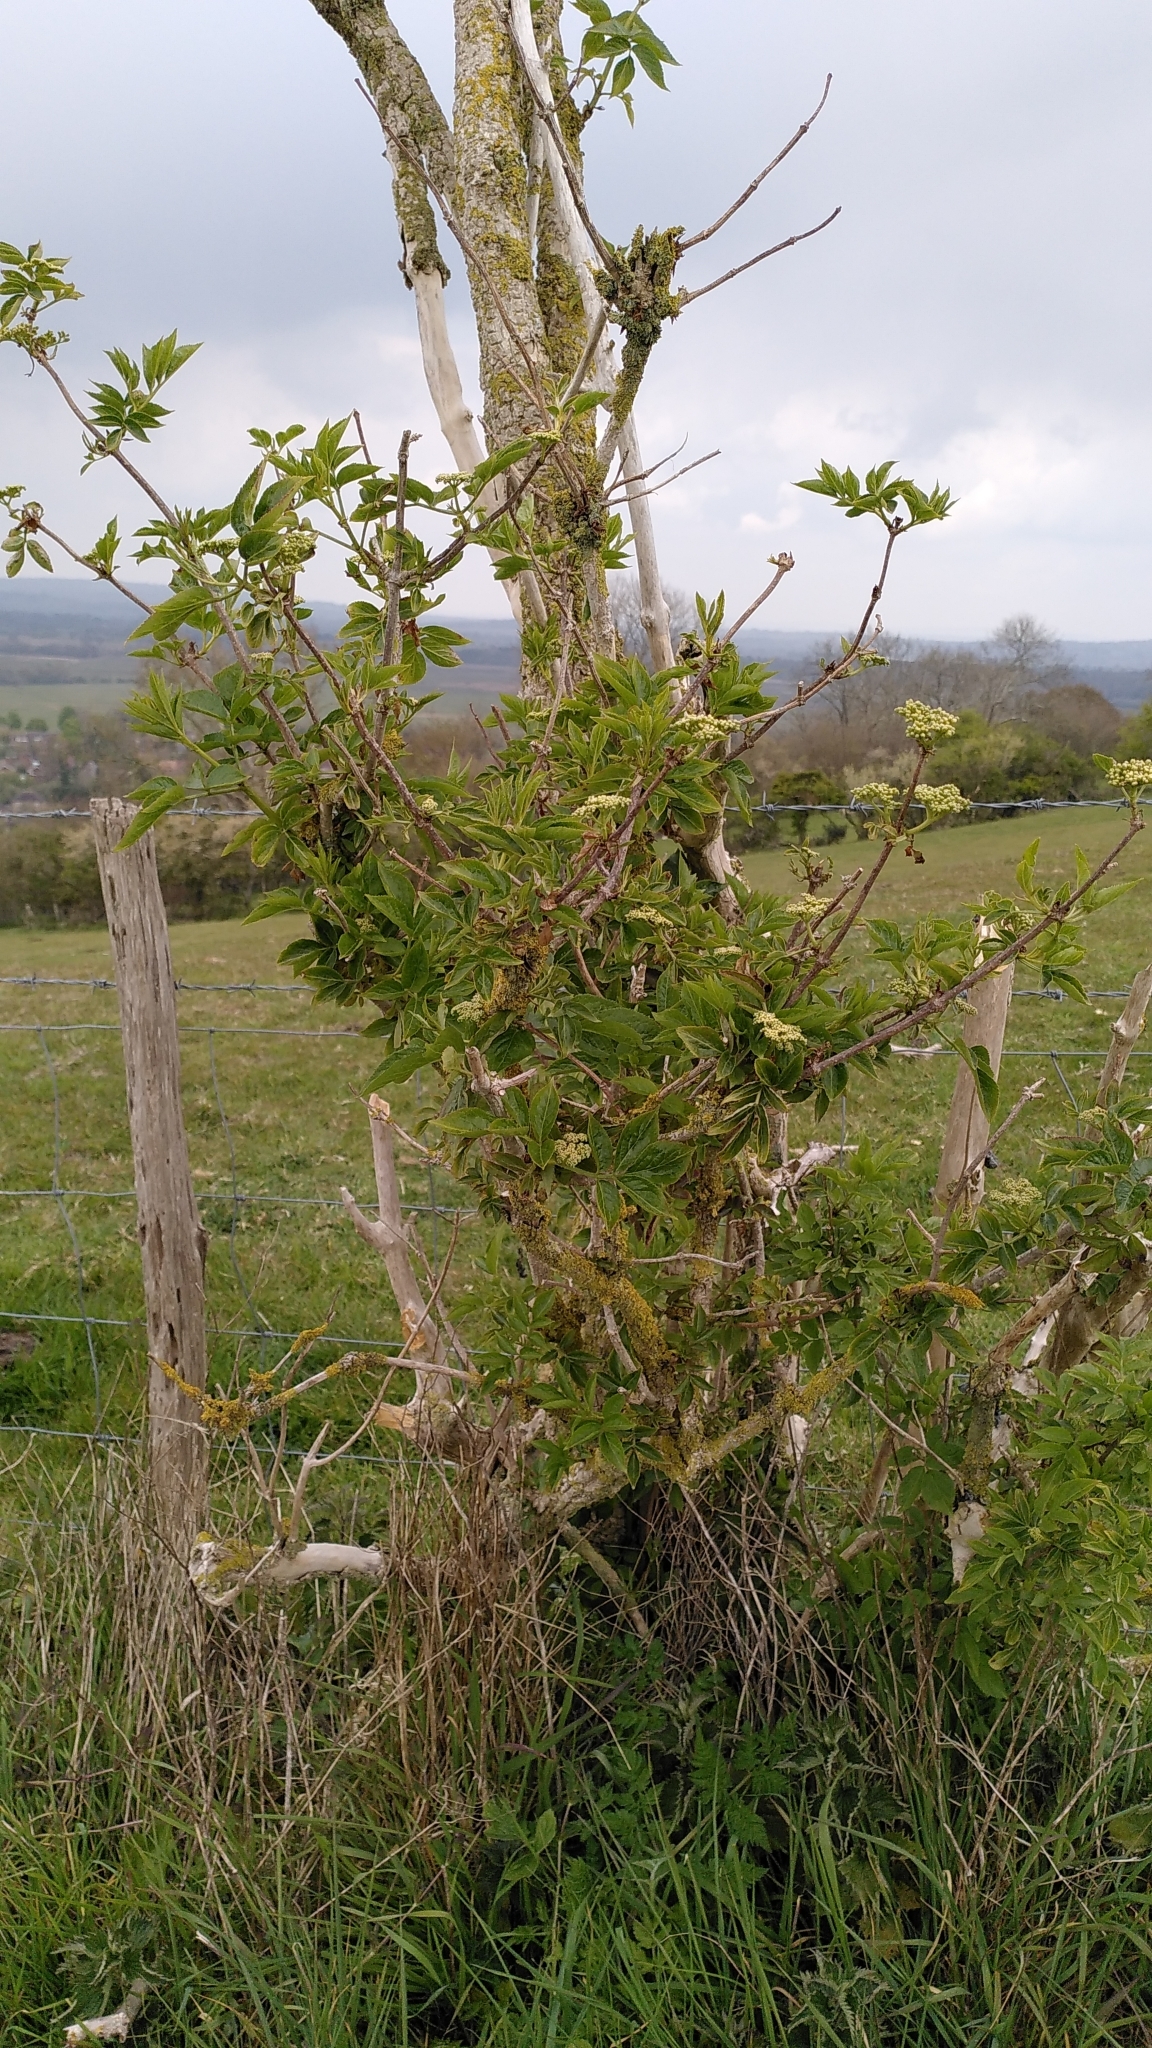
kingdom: Plantae
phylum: Tracheophyta
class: Magnoliopsida
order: Dipsacales
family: Viburnaceae
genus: Sambucus
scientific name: Sambucus nigra
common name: Elder
